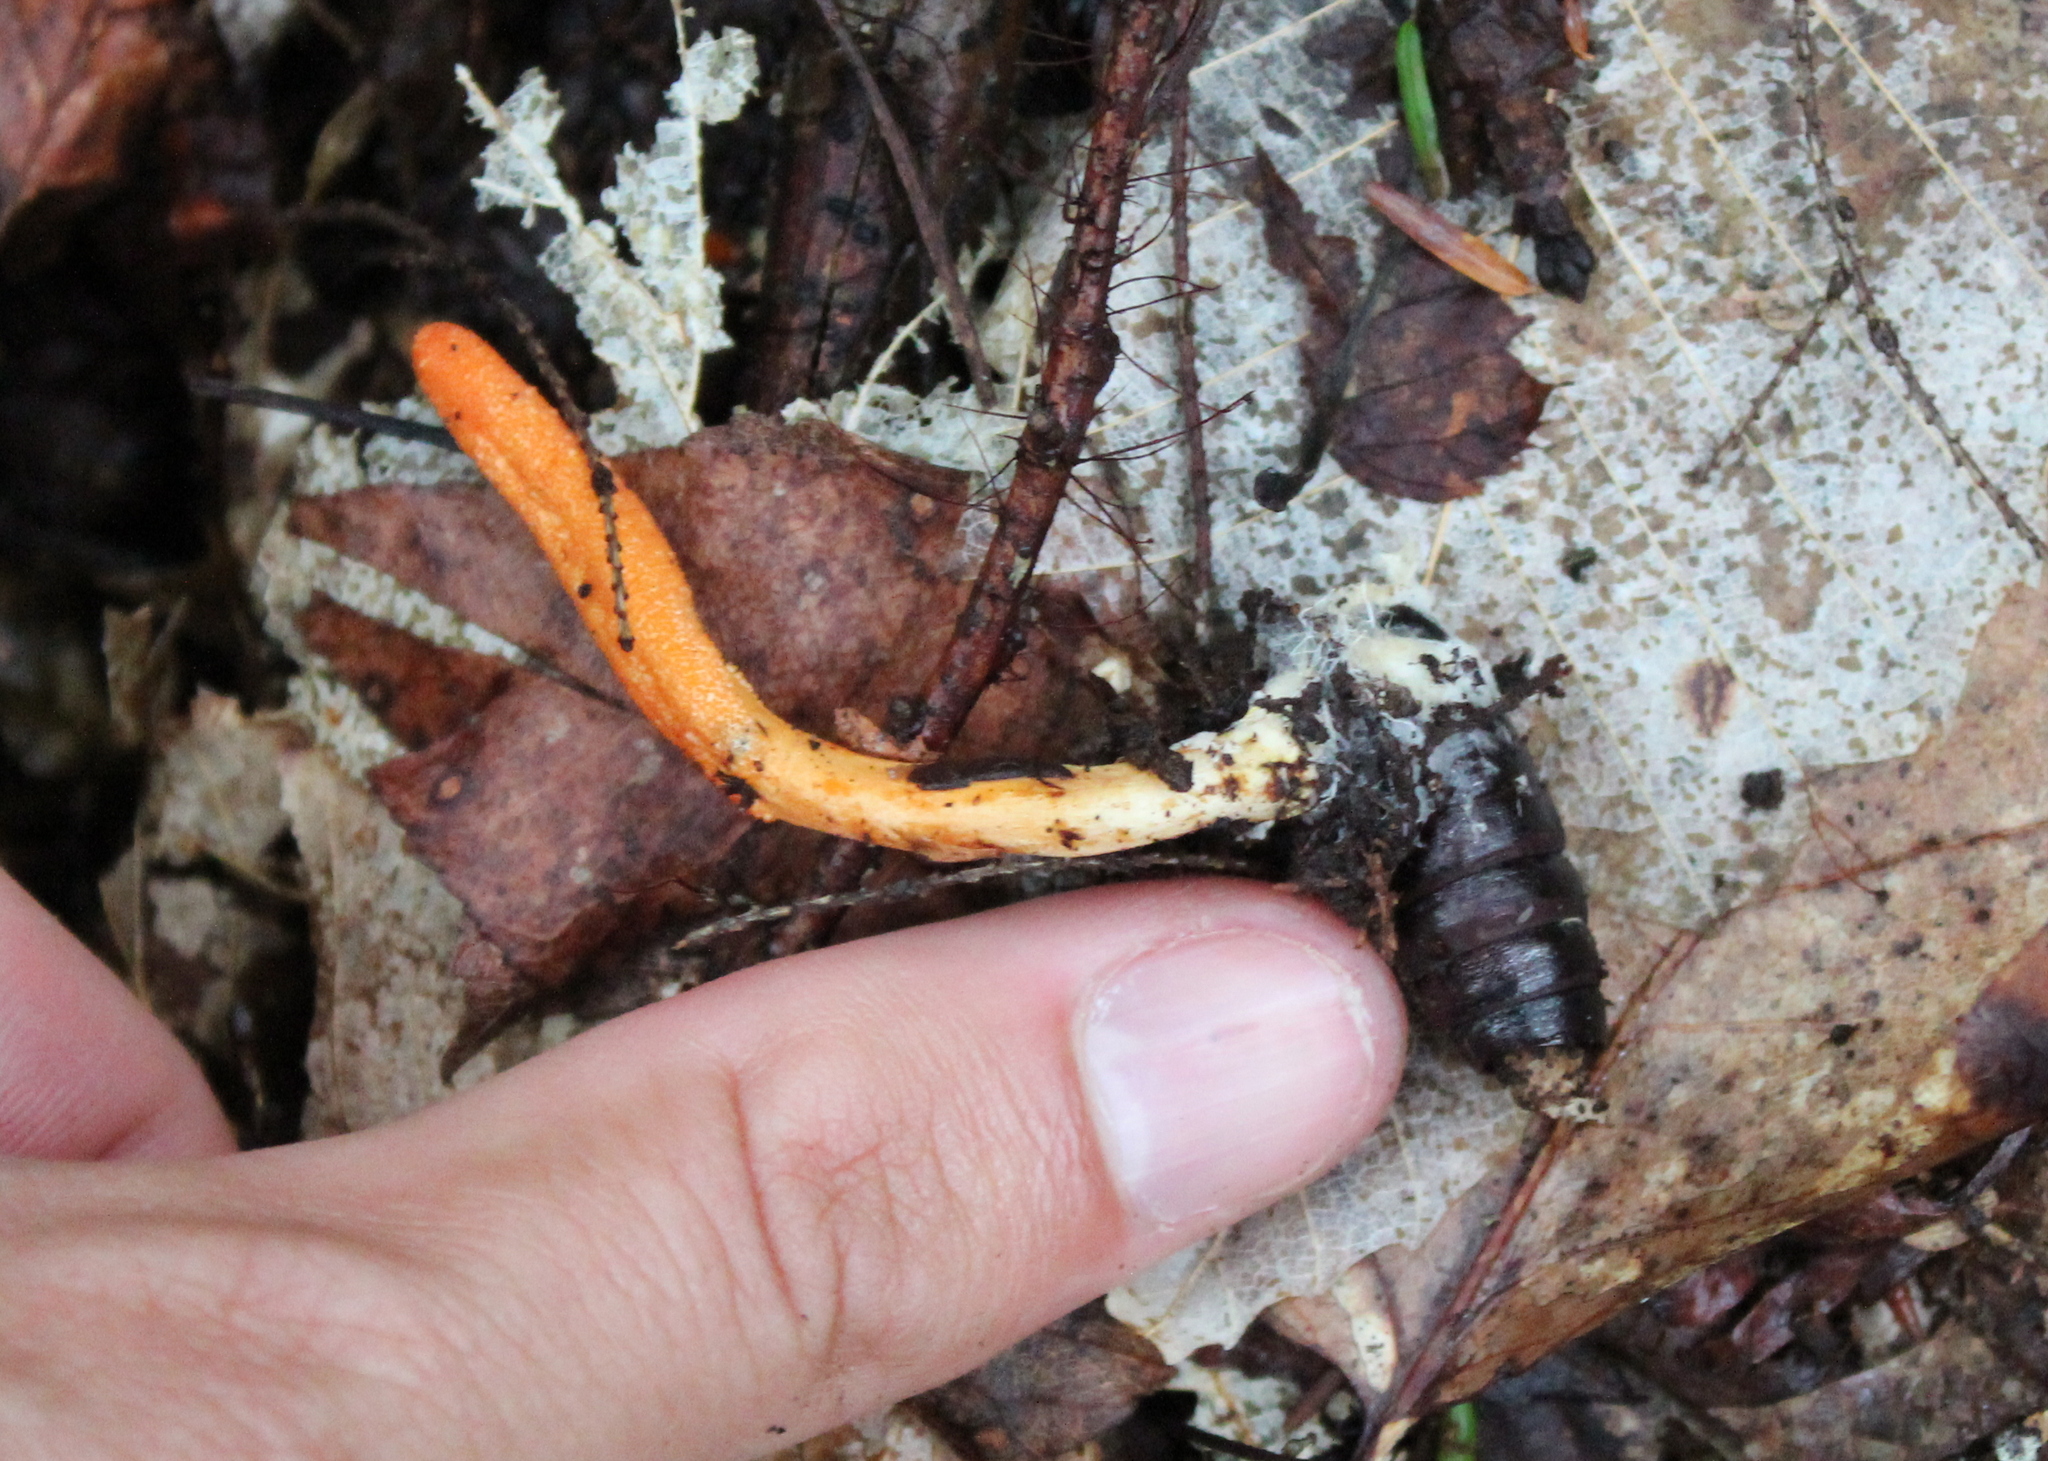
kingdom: Fungi
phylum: Ascomycota
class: Sordariomycetes
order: Hypocreales
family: Cordycipitaceae
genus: Cordyceps
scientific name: Cordyceps militaris
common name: Scarlet caterpillar fungus
